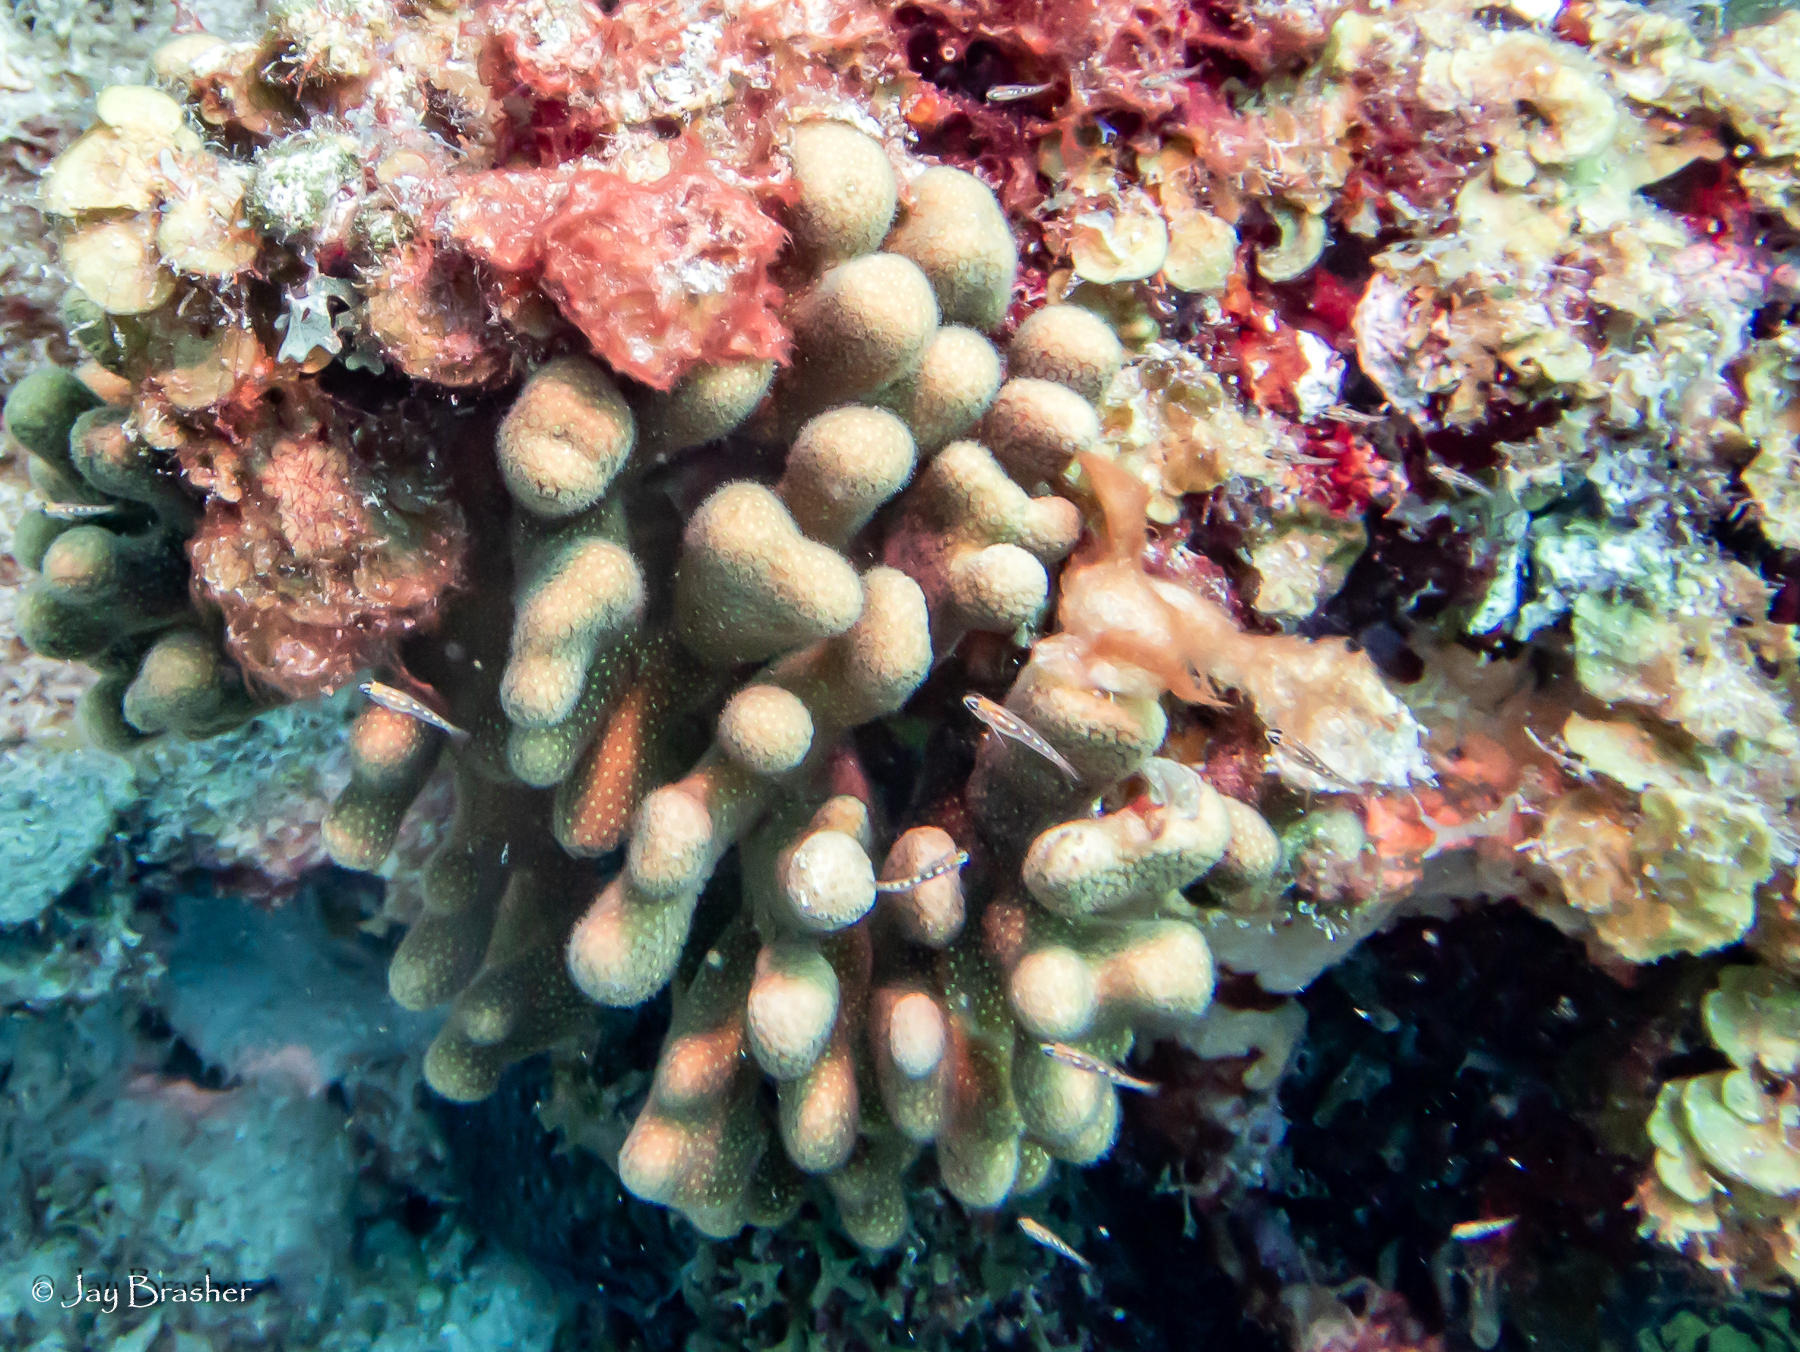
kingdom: Animalia
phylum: Cnidaria
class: Anthozoa
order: Scleractinia
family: Poritidae
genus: Porites
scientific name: Porites porites
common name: Finger coral
